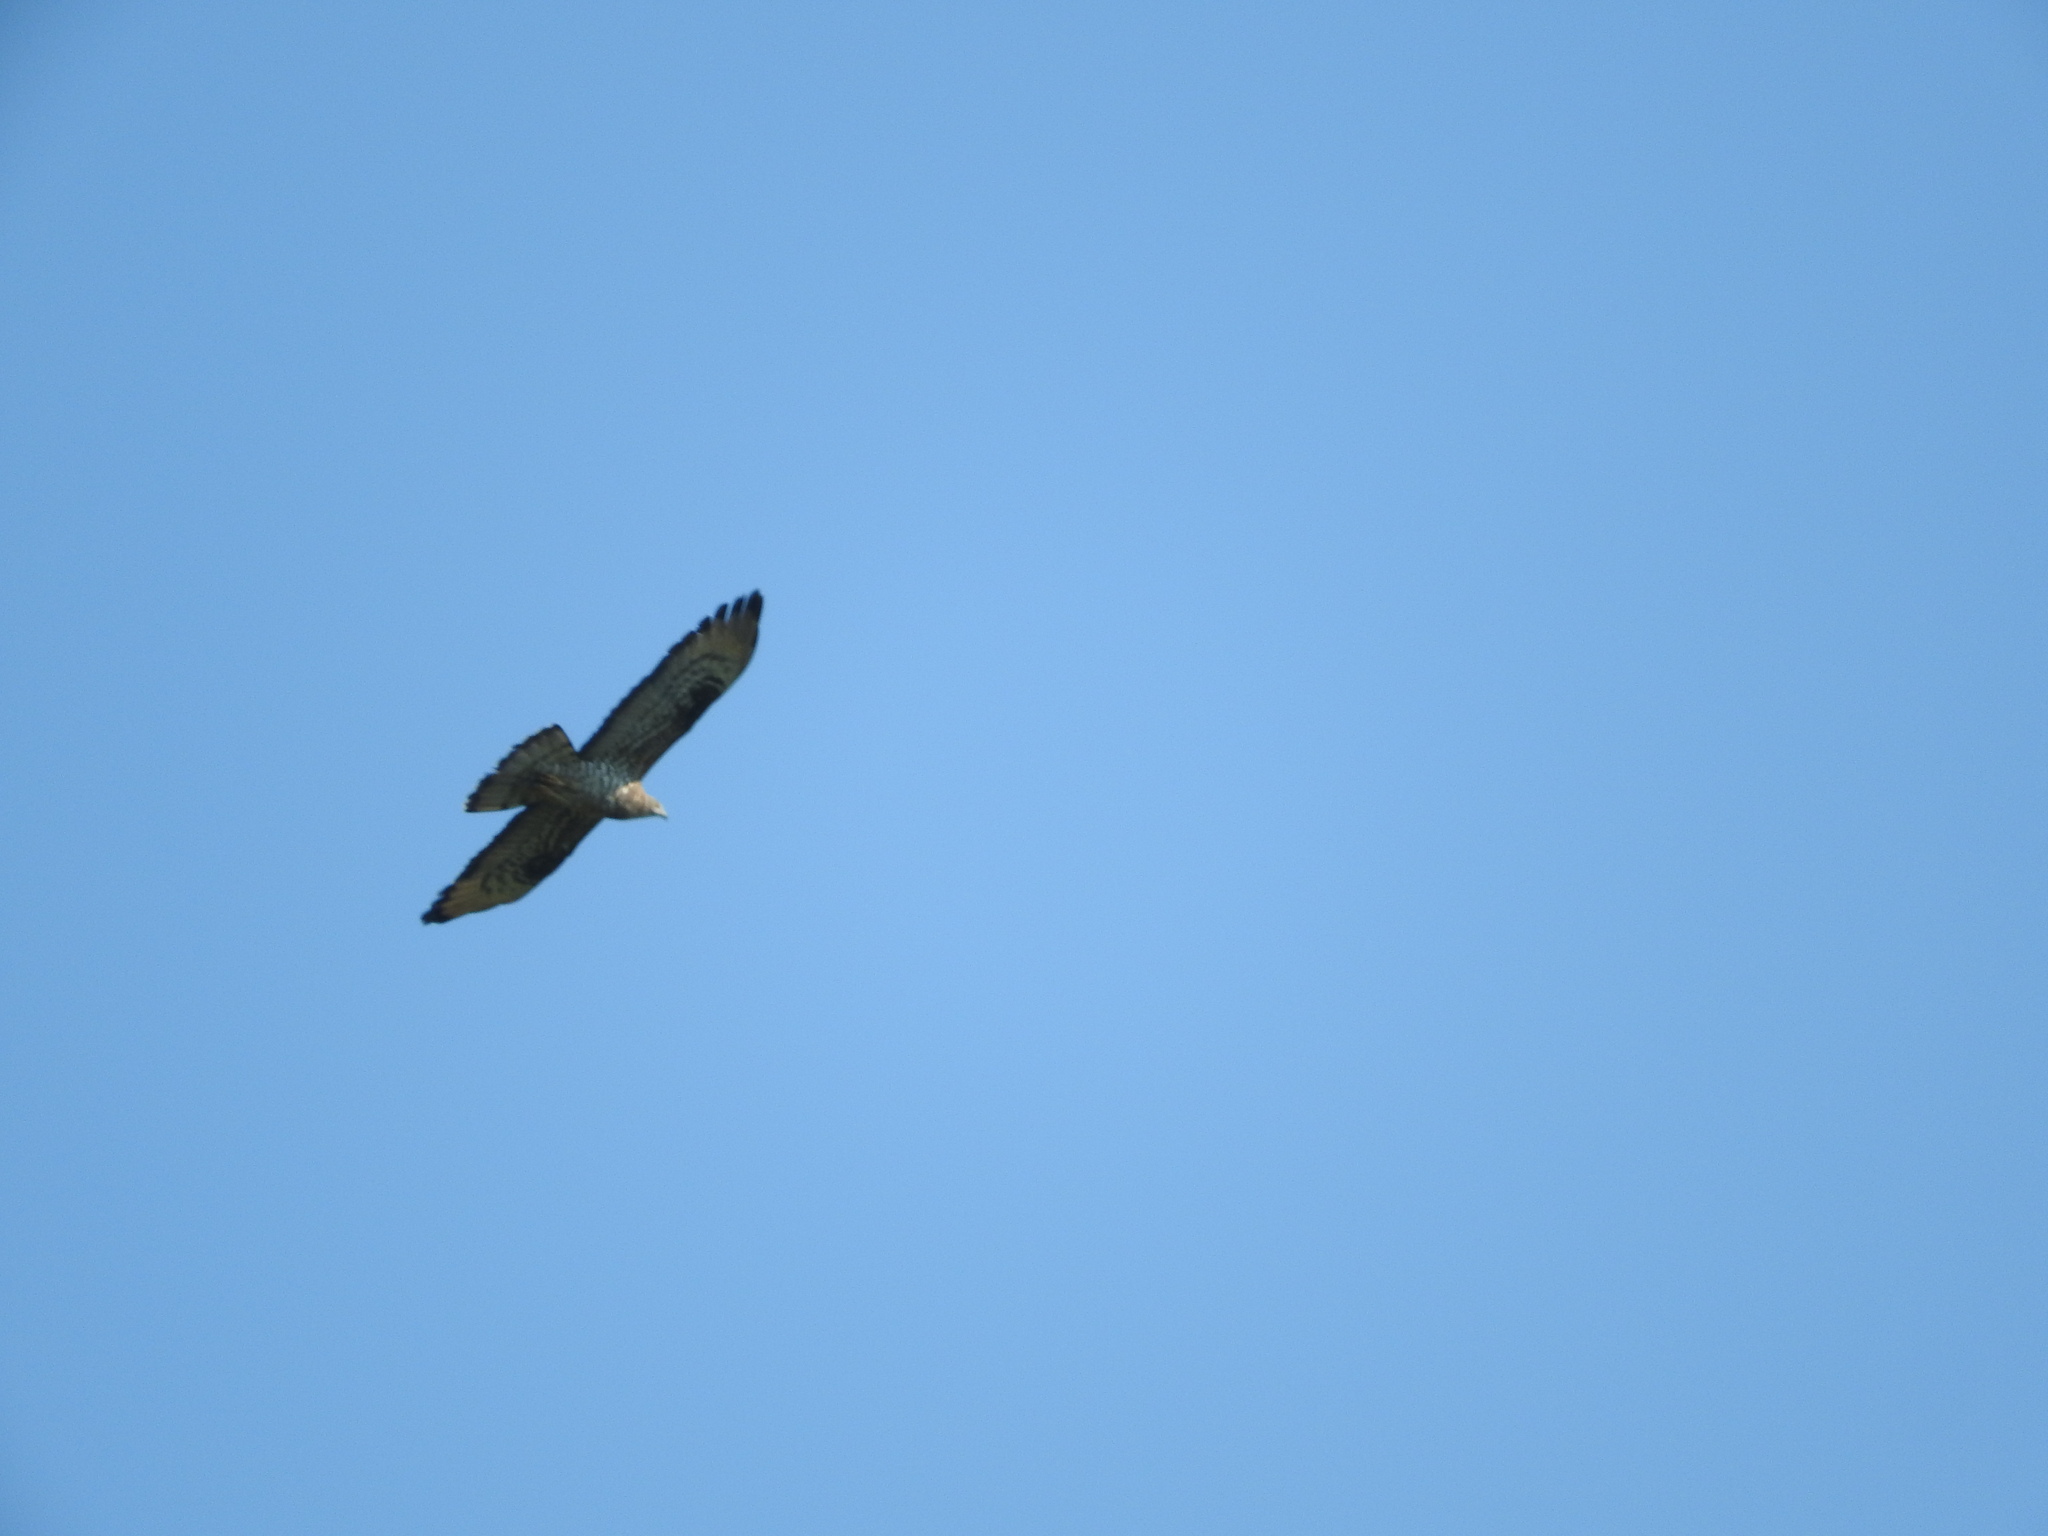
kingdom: Animalia
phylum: Chordata
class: Aves
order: Accipitriformes
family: Accipitridae
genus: Pernis
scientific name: Pernis apivorus
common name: European honey buzzard
